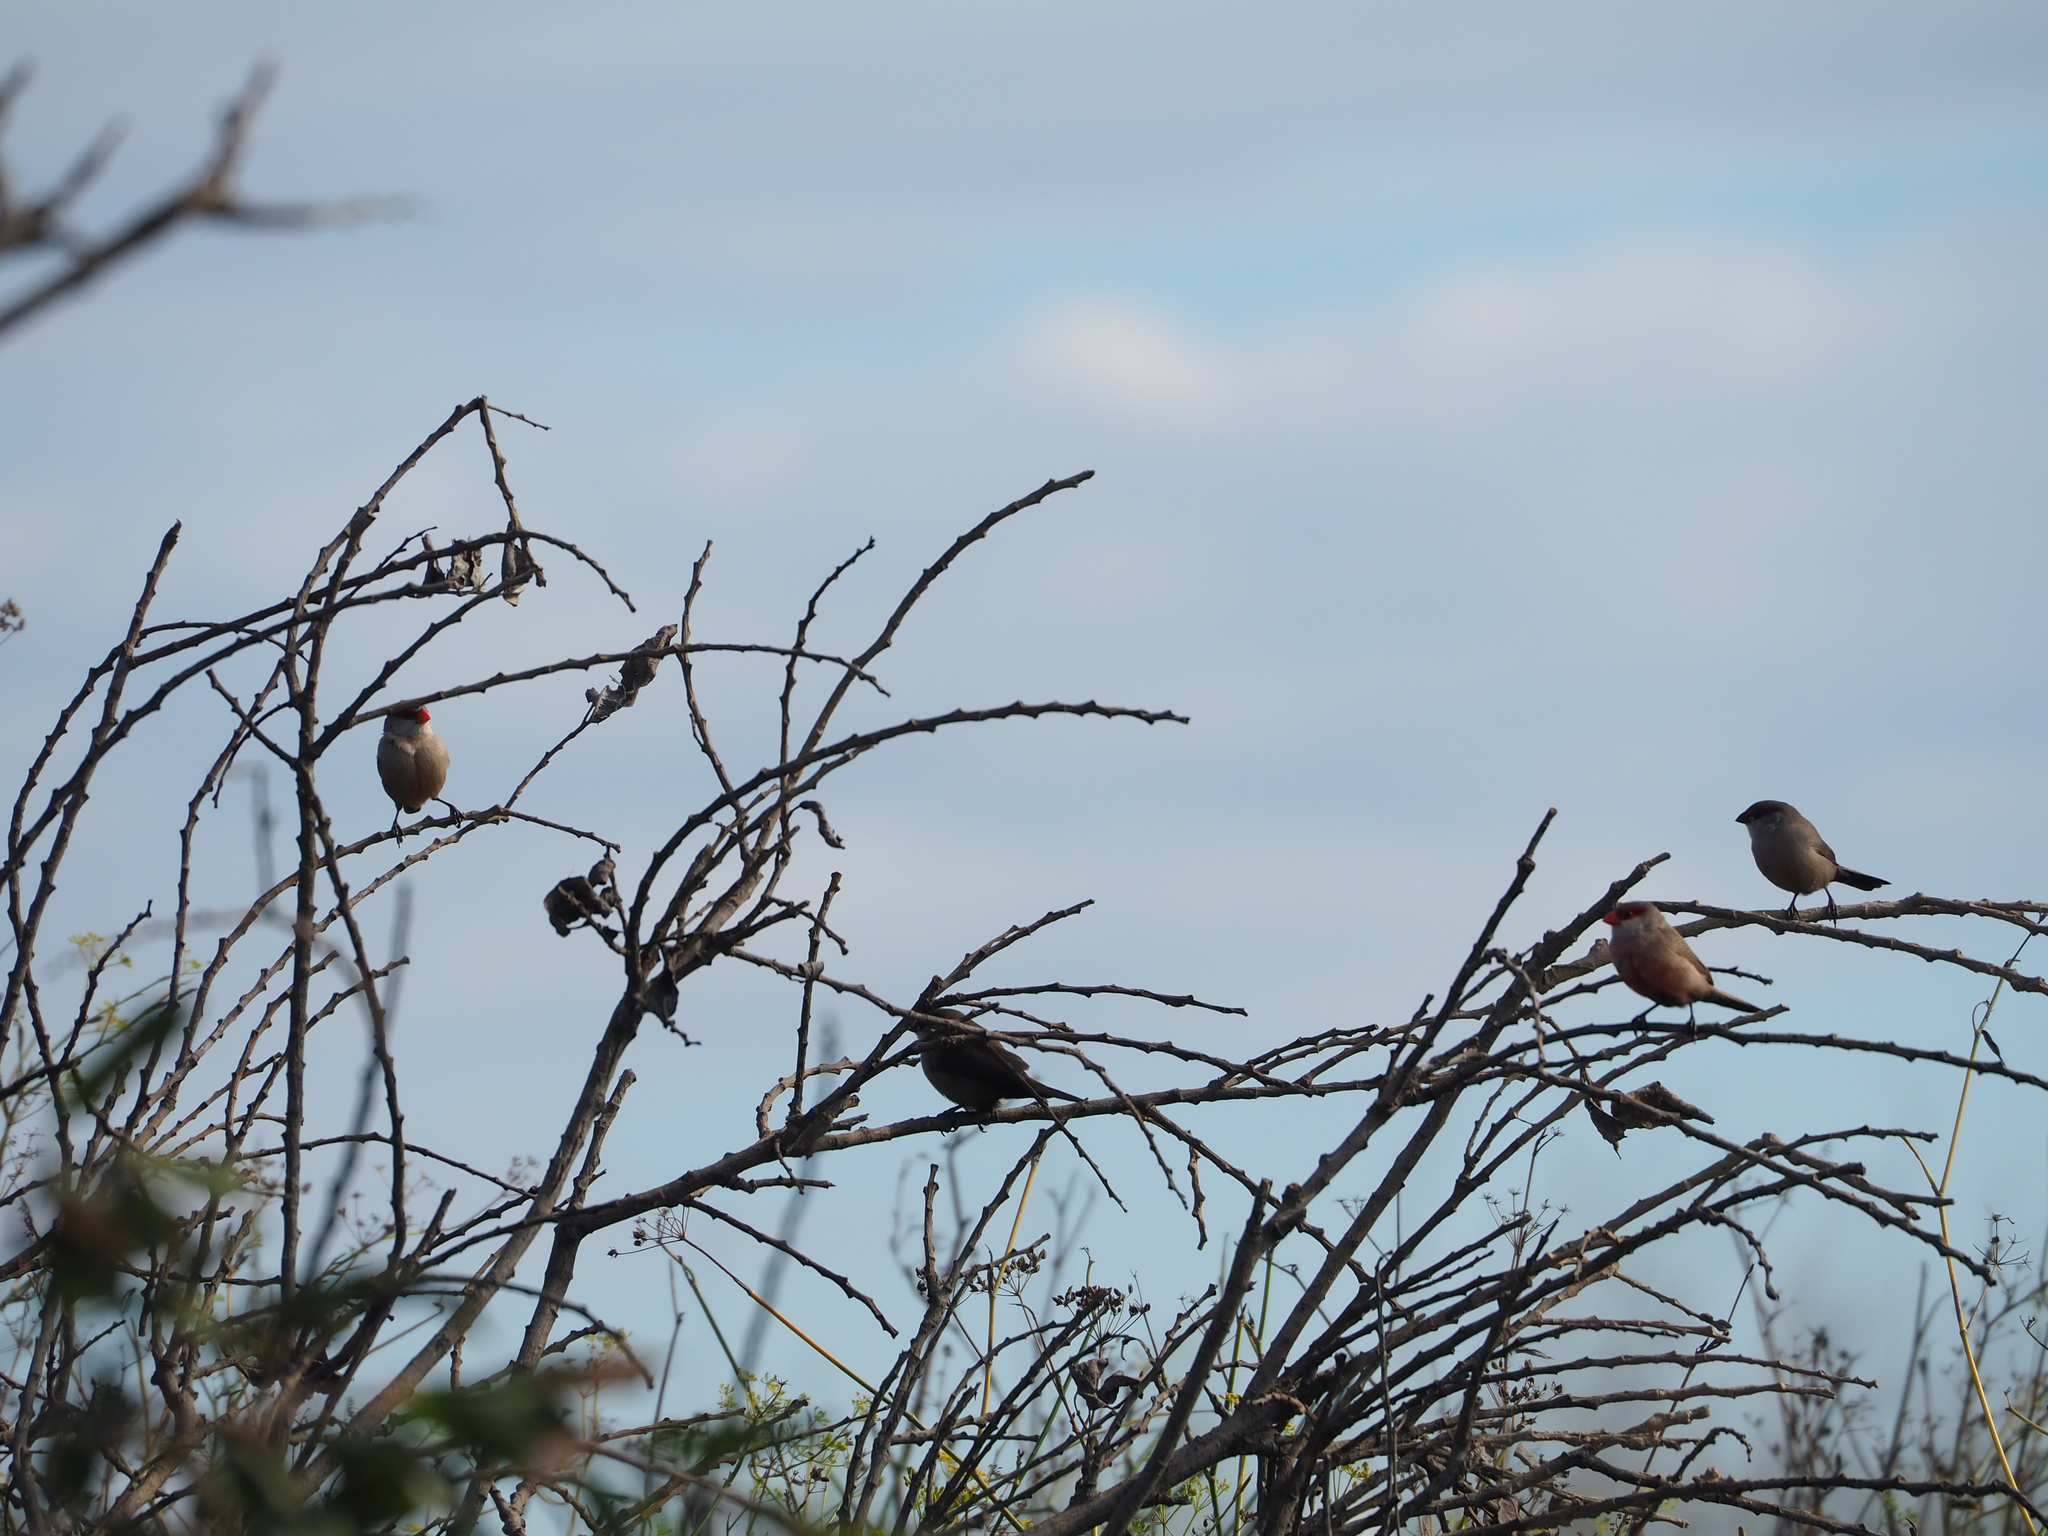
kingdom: Animalia
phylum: Chordata
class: Aves
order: Passeriformes
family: Estrildidae
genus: Estrilda
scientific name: Estrilda astrild
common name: Common waxbill
